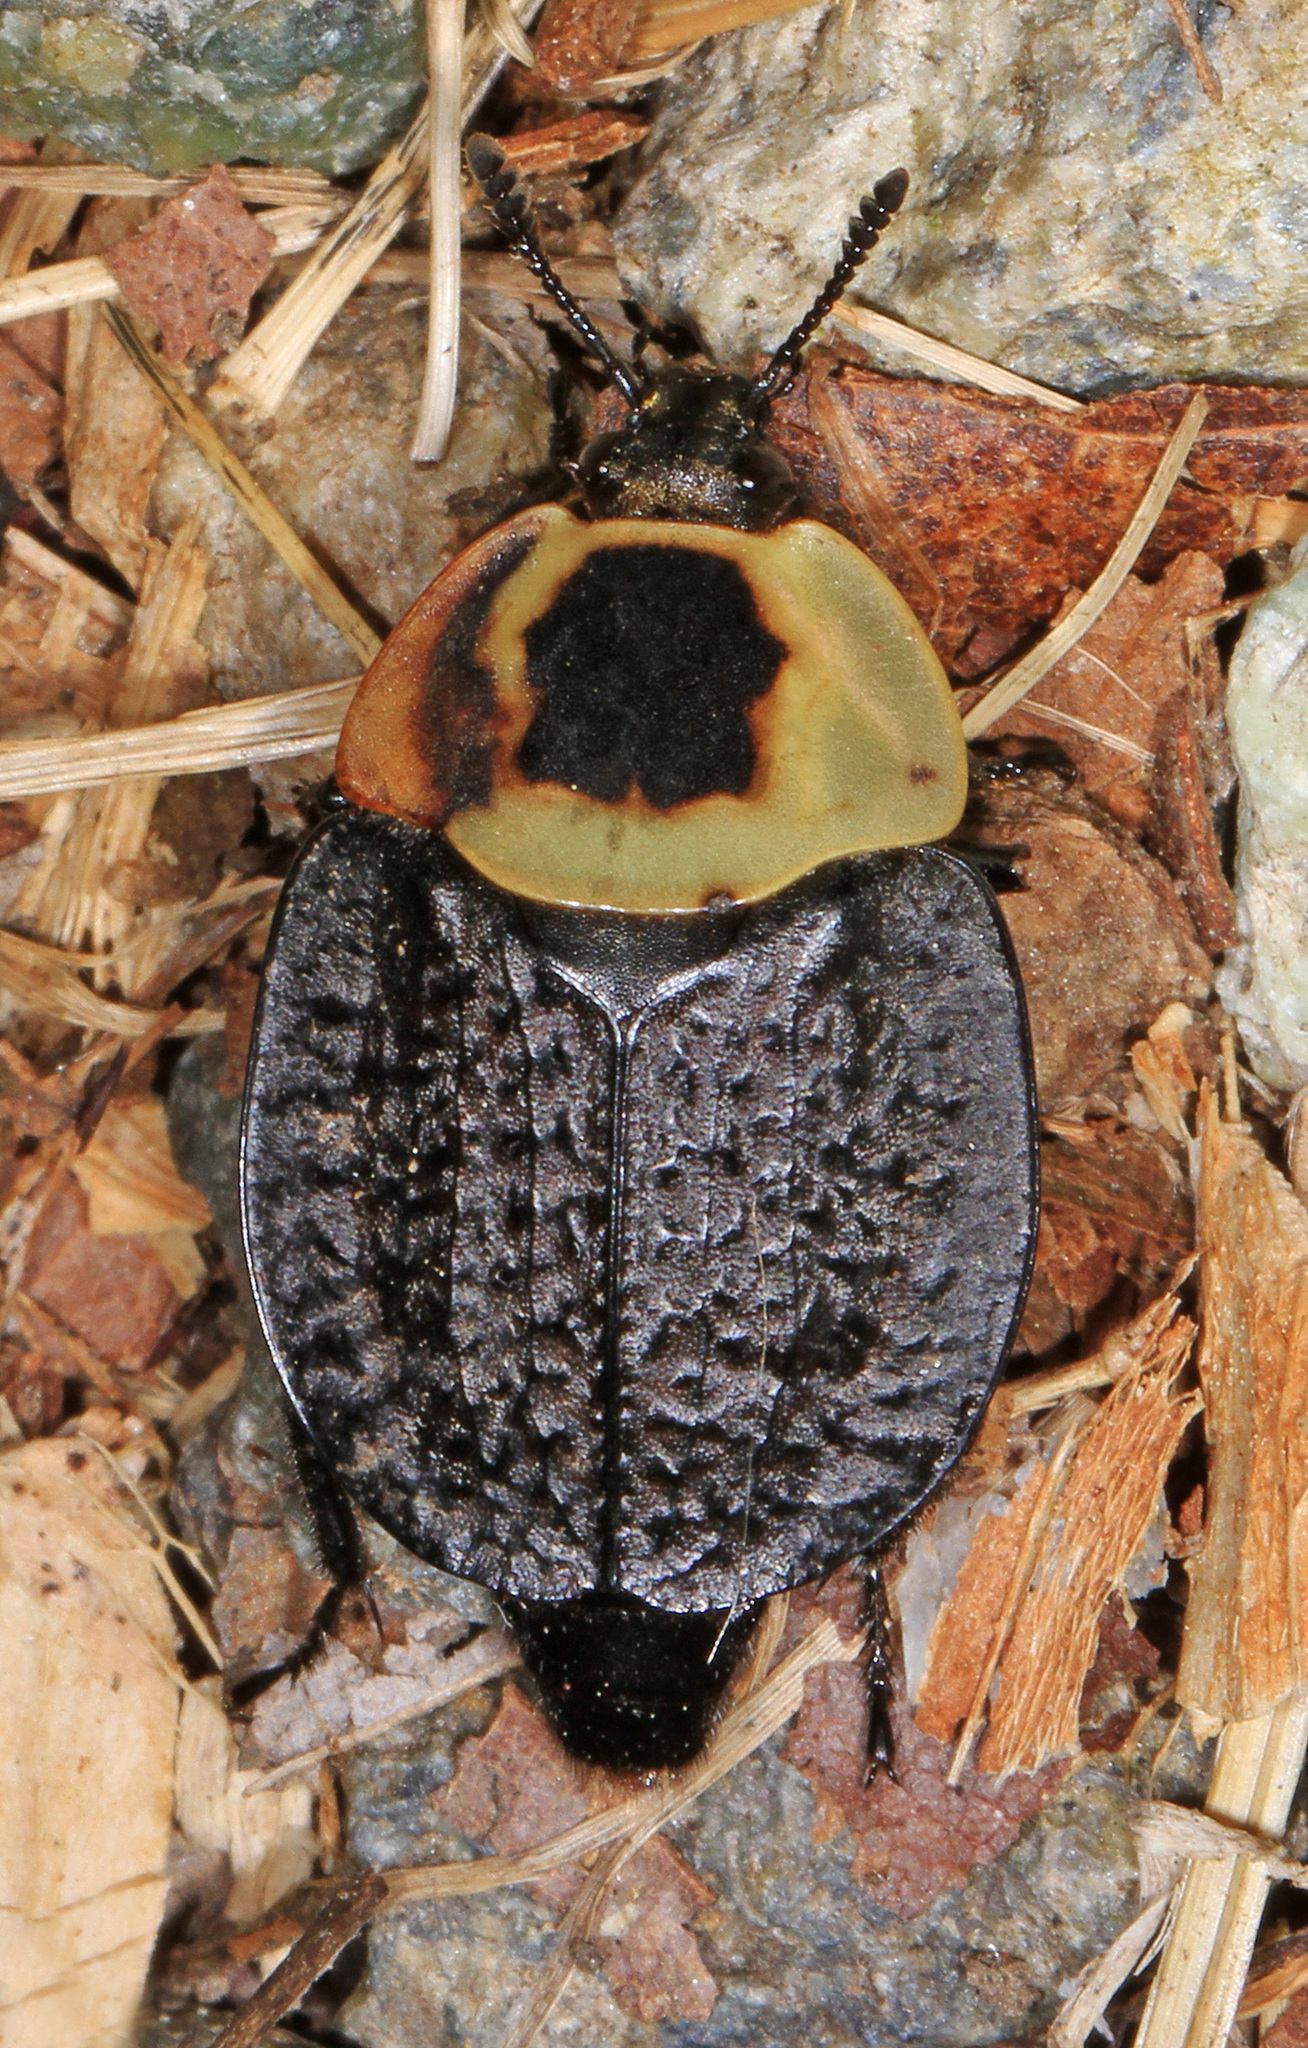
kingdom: Animalia
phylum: Arthropoda
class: Insecta
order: Coleoptera
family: Staphylinidae
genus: Necrophila
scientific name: Necrophila americana
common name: American carrion beetle
